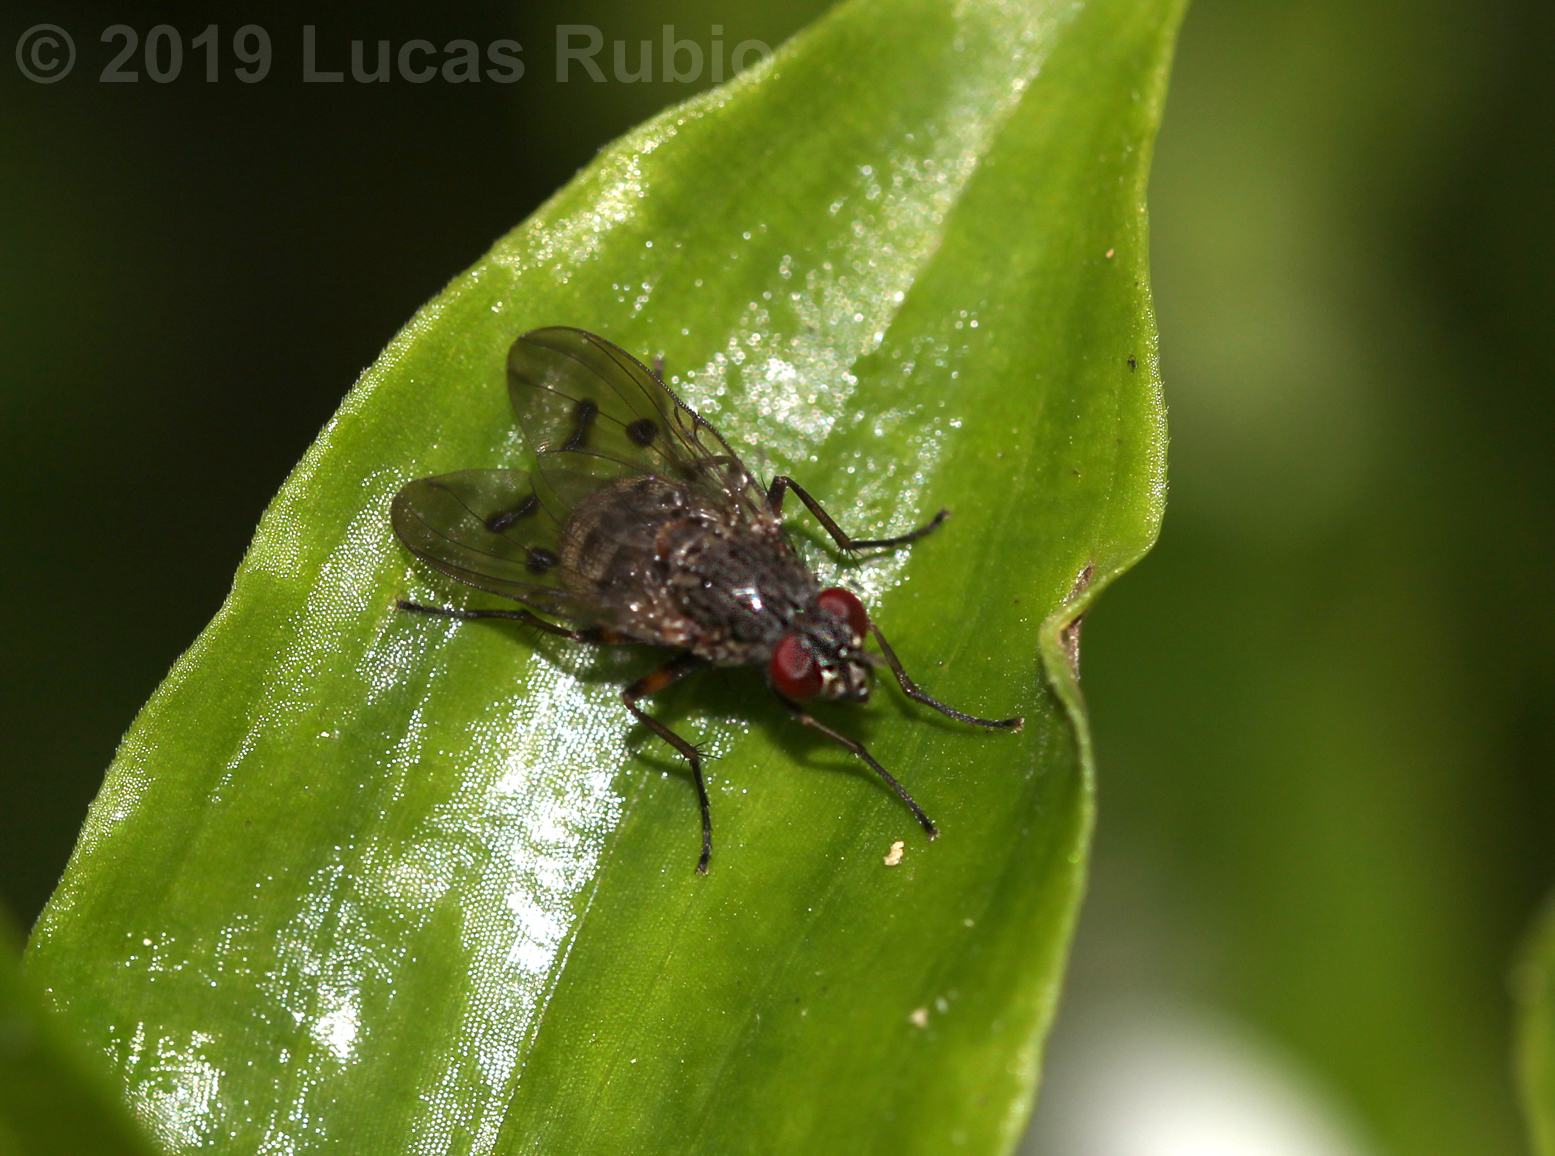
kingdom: Animalia
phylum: Arthropoda
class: Insecta
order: Diptera
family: Muscidae
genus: Phaonia
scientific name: Phaonia trispila
